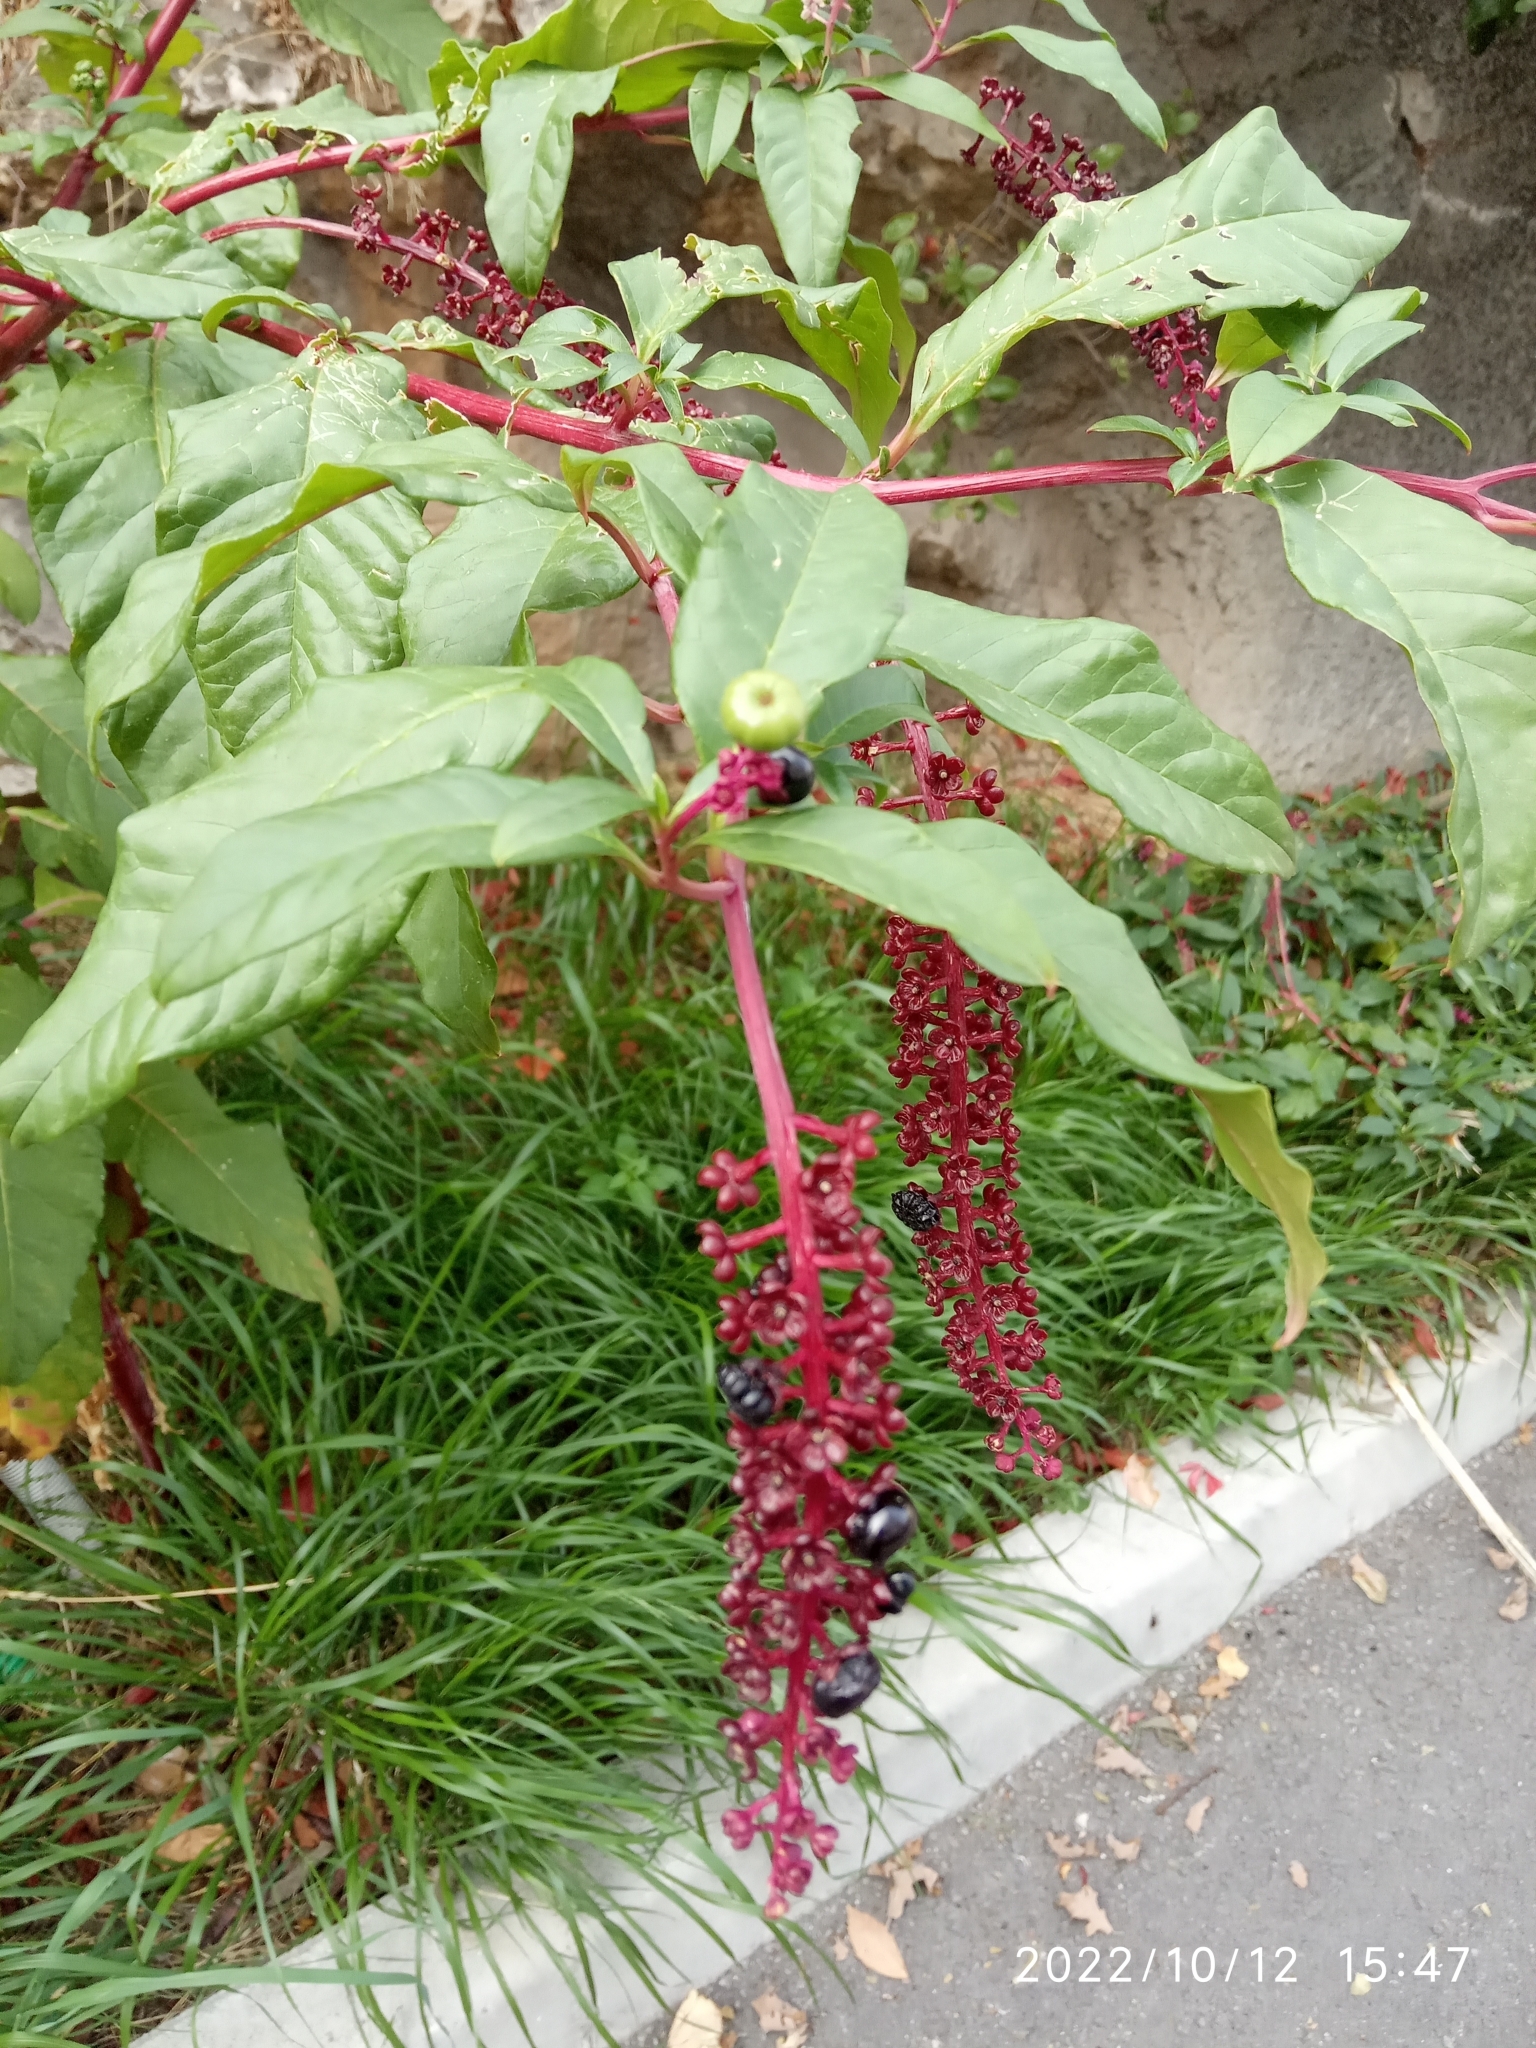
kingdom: Plantae
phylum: Tracheophyta
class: Magnoliopsida
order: Caryophyllales
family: Phytolaccaceae
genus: Phytolacca
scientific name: Phytolacca americana
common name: American pokeweed
